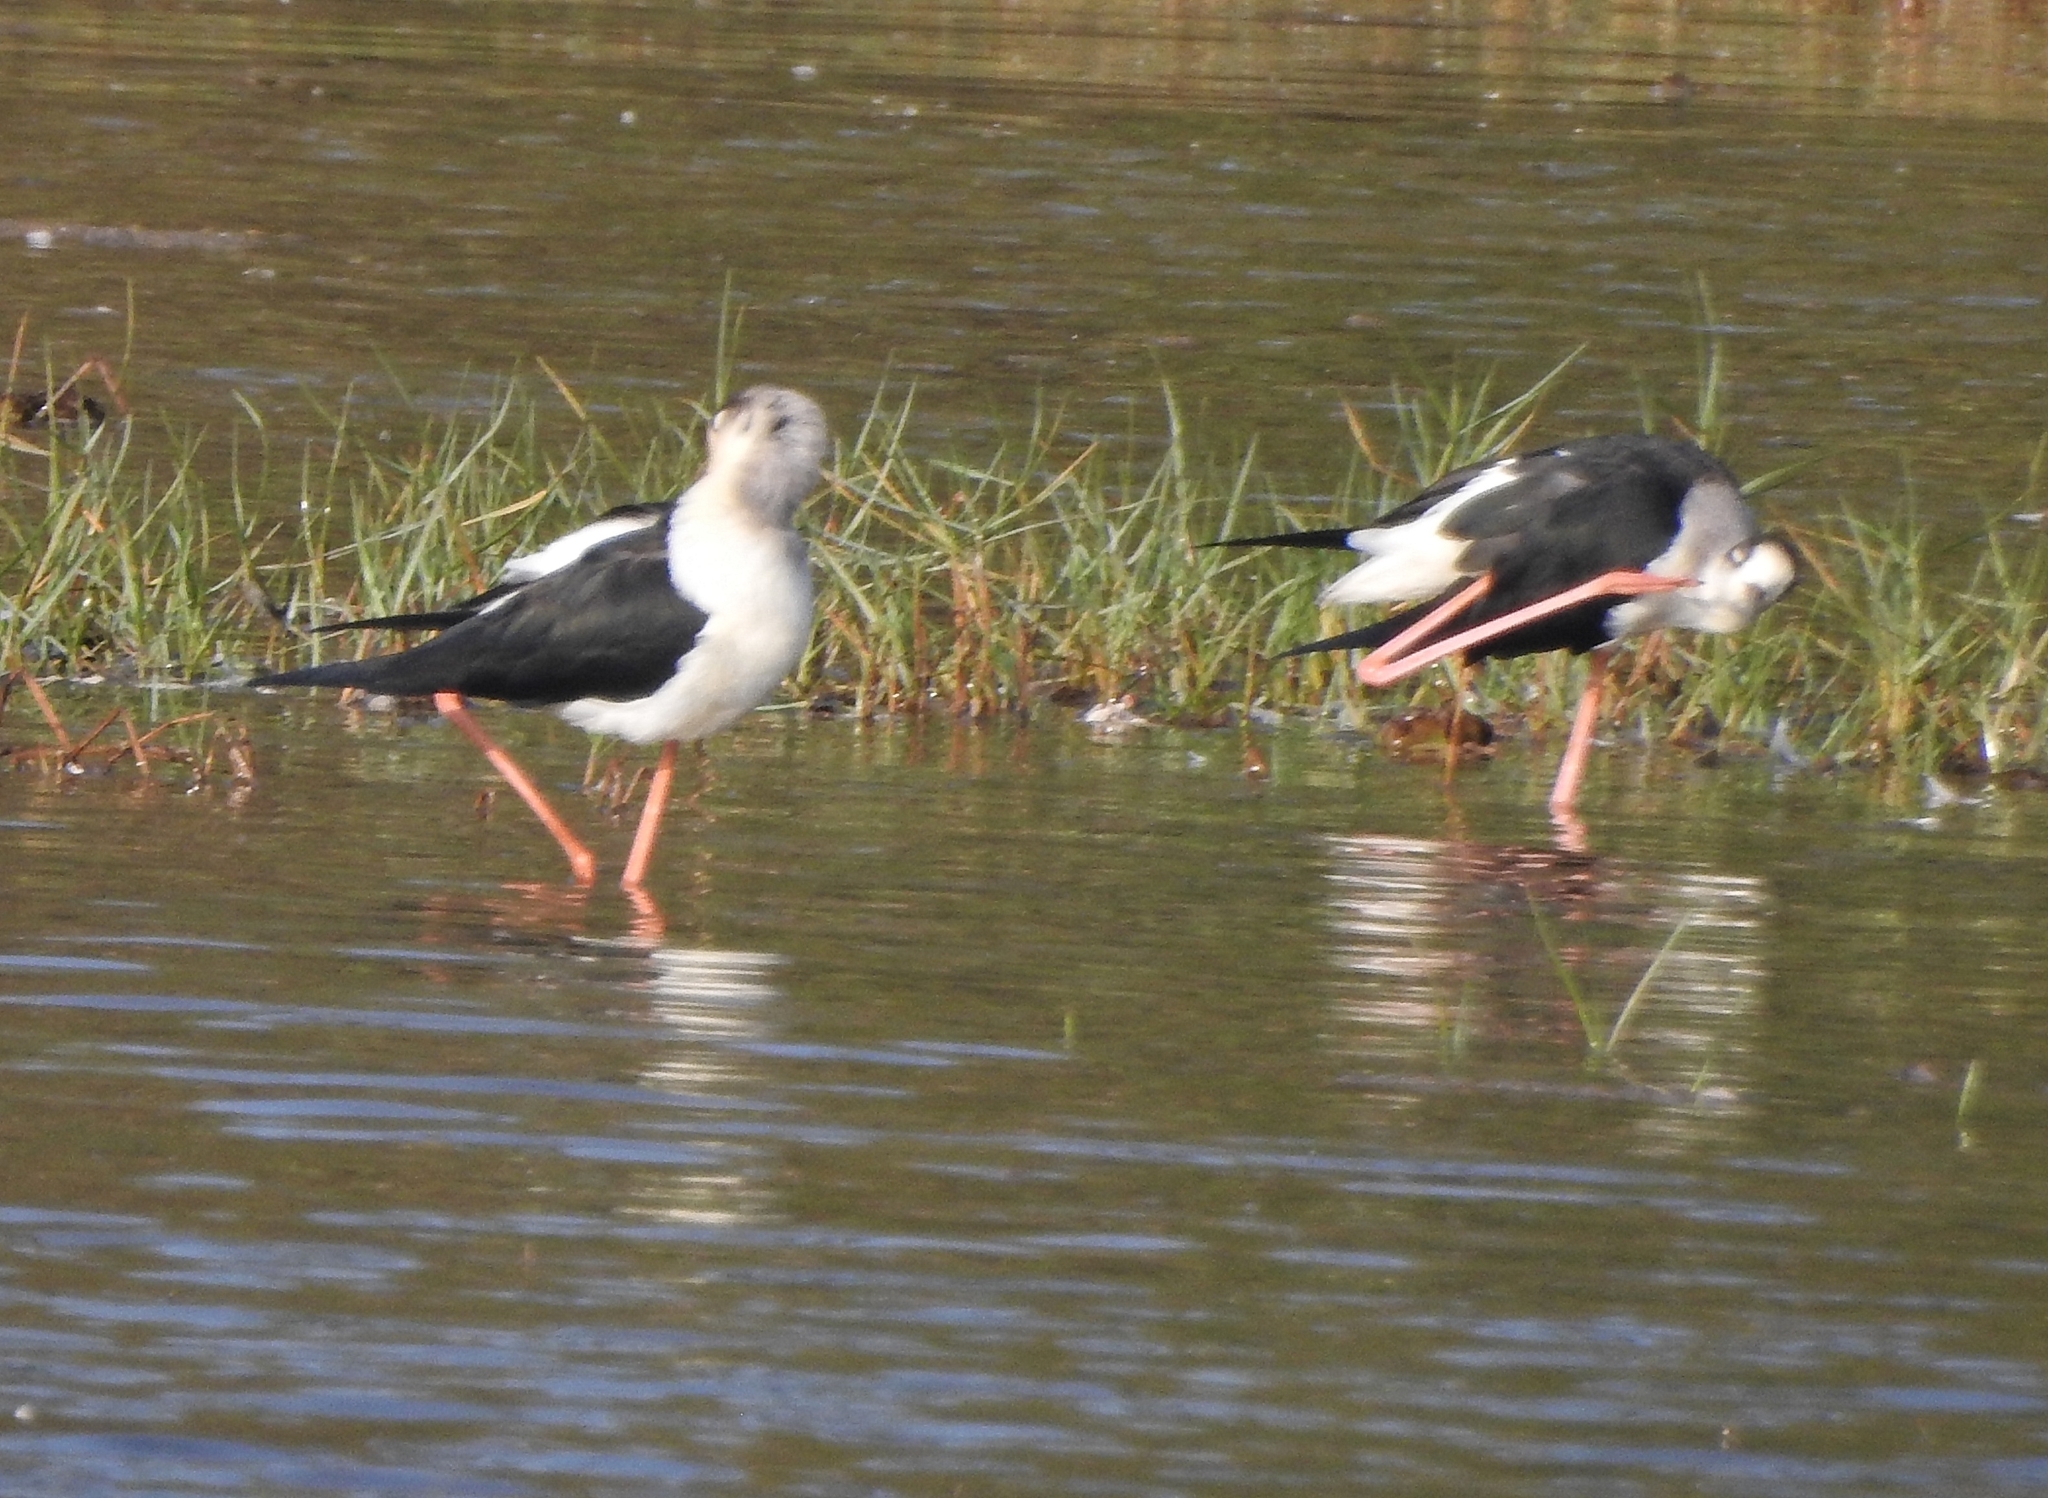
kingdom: Animalia
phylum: Chordata
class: Aves
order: Charadriiformes
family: Recurvirostridae
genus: Himantopus
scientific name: Himantopus himantopus
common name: Black-winged stilt
